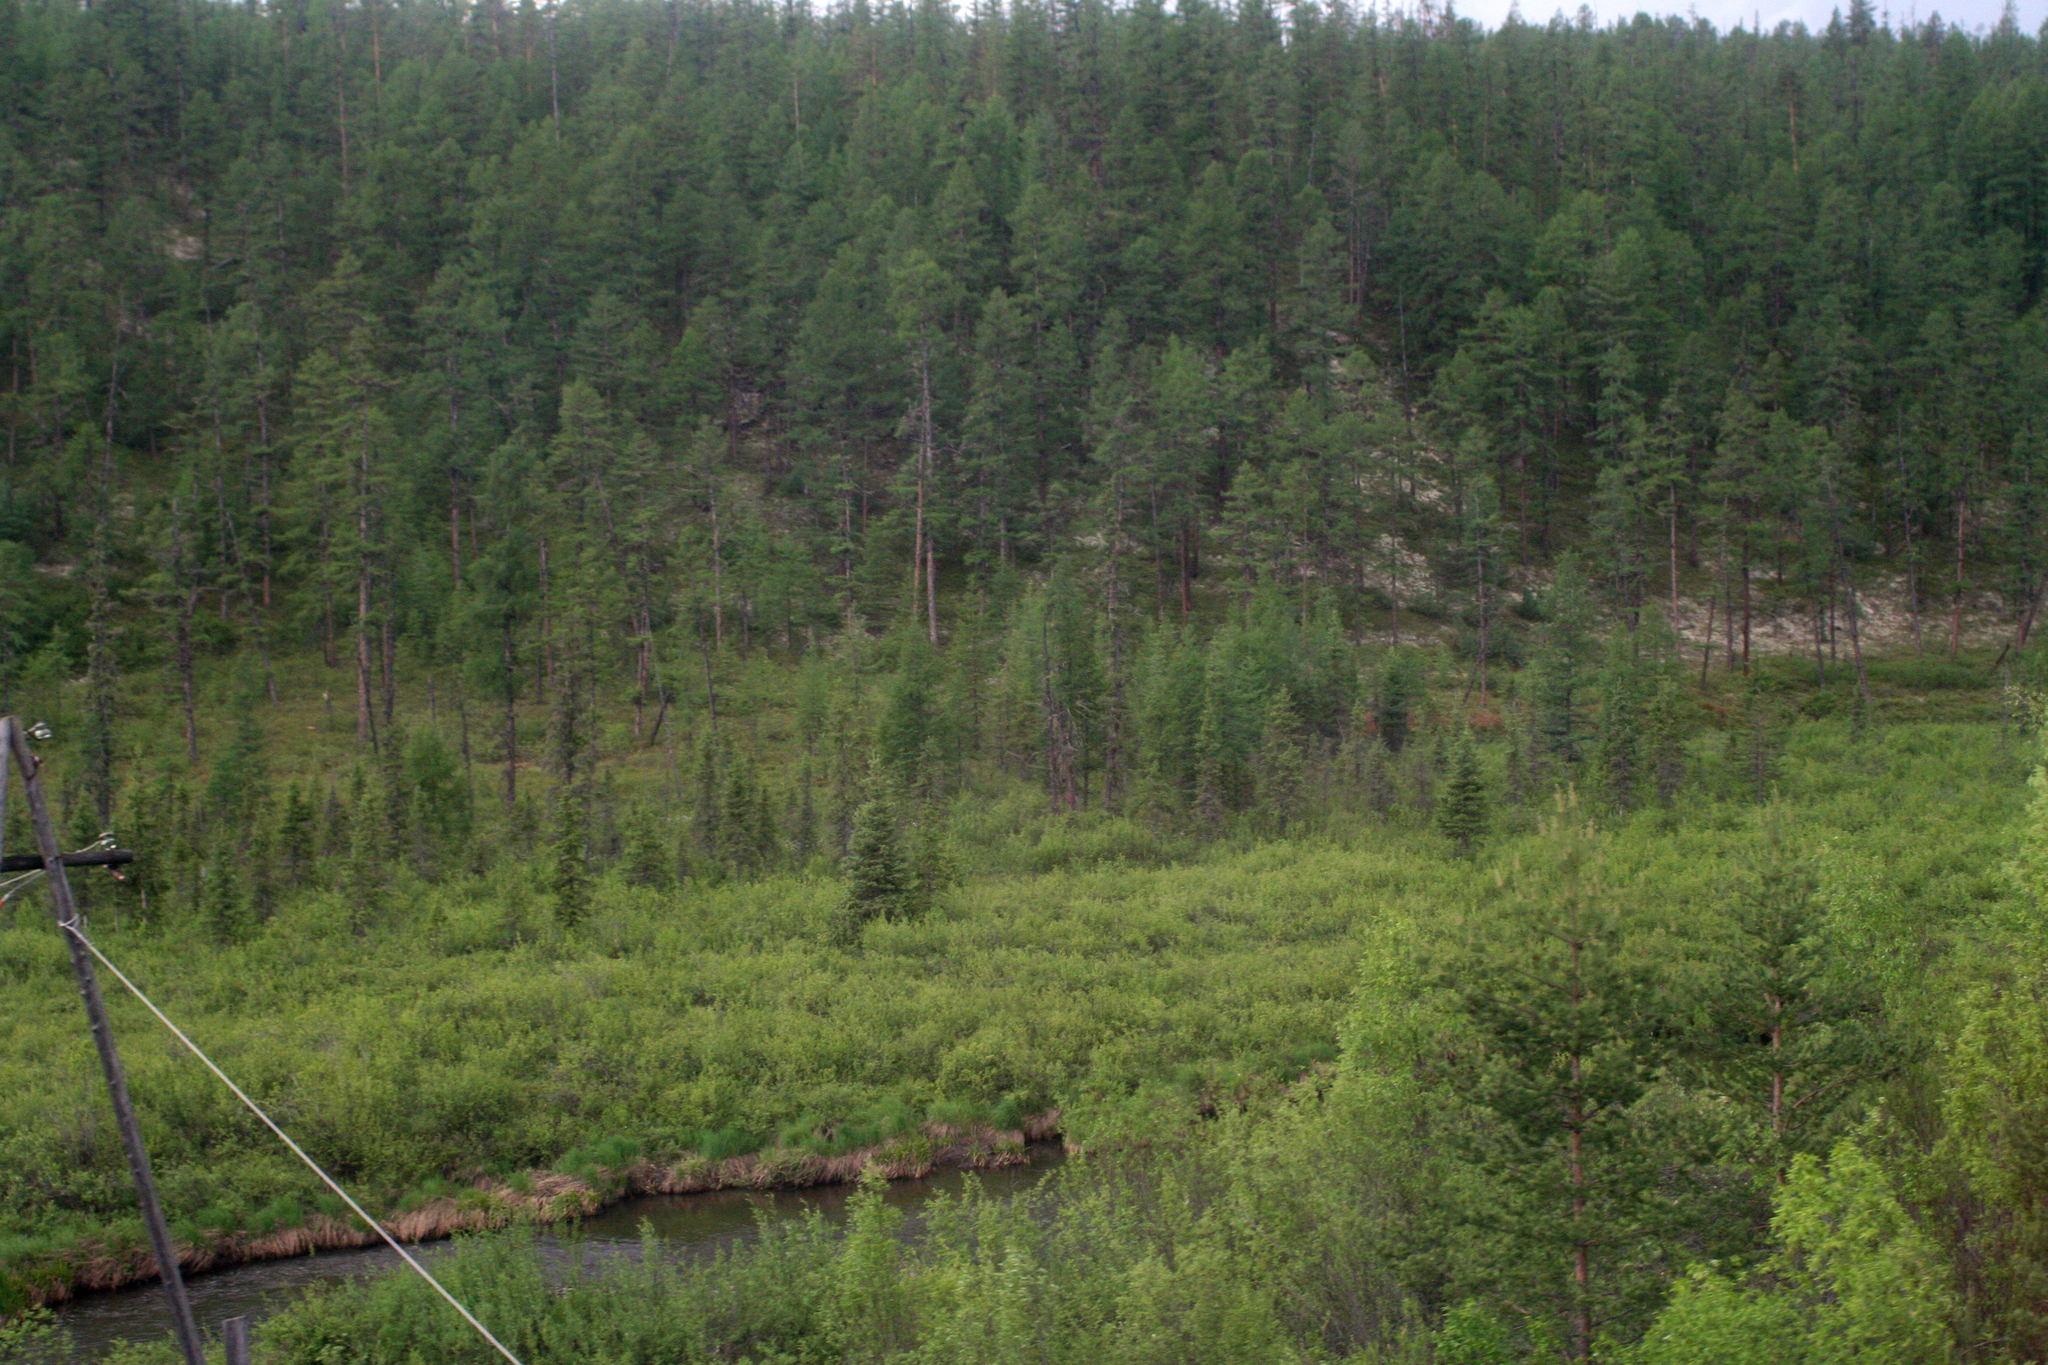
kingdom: Plantae
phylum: Tracheophyta
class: Pinopsida
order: Pinales
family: Pinaceae
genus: Picea
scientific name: Picea obovata
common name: Siberian spruce
